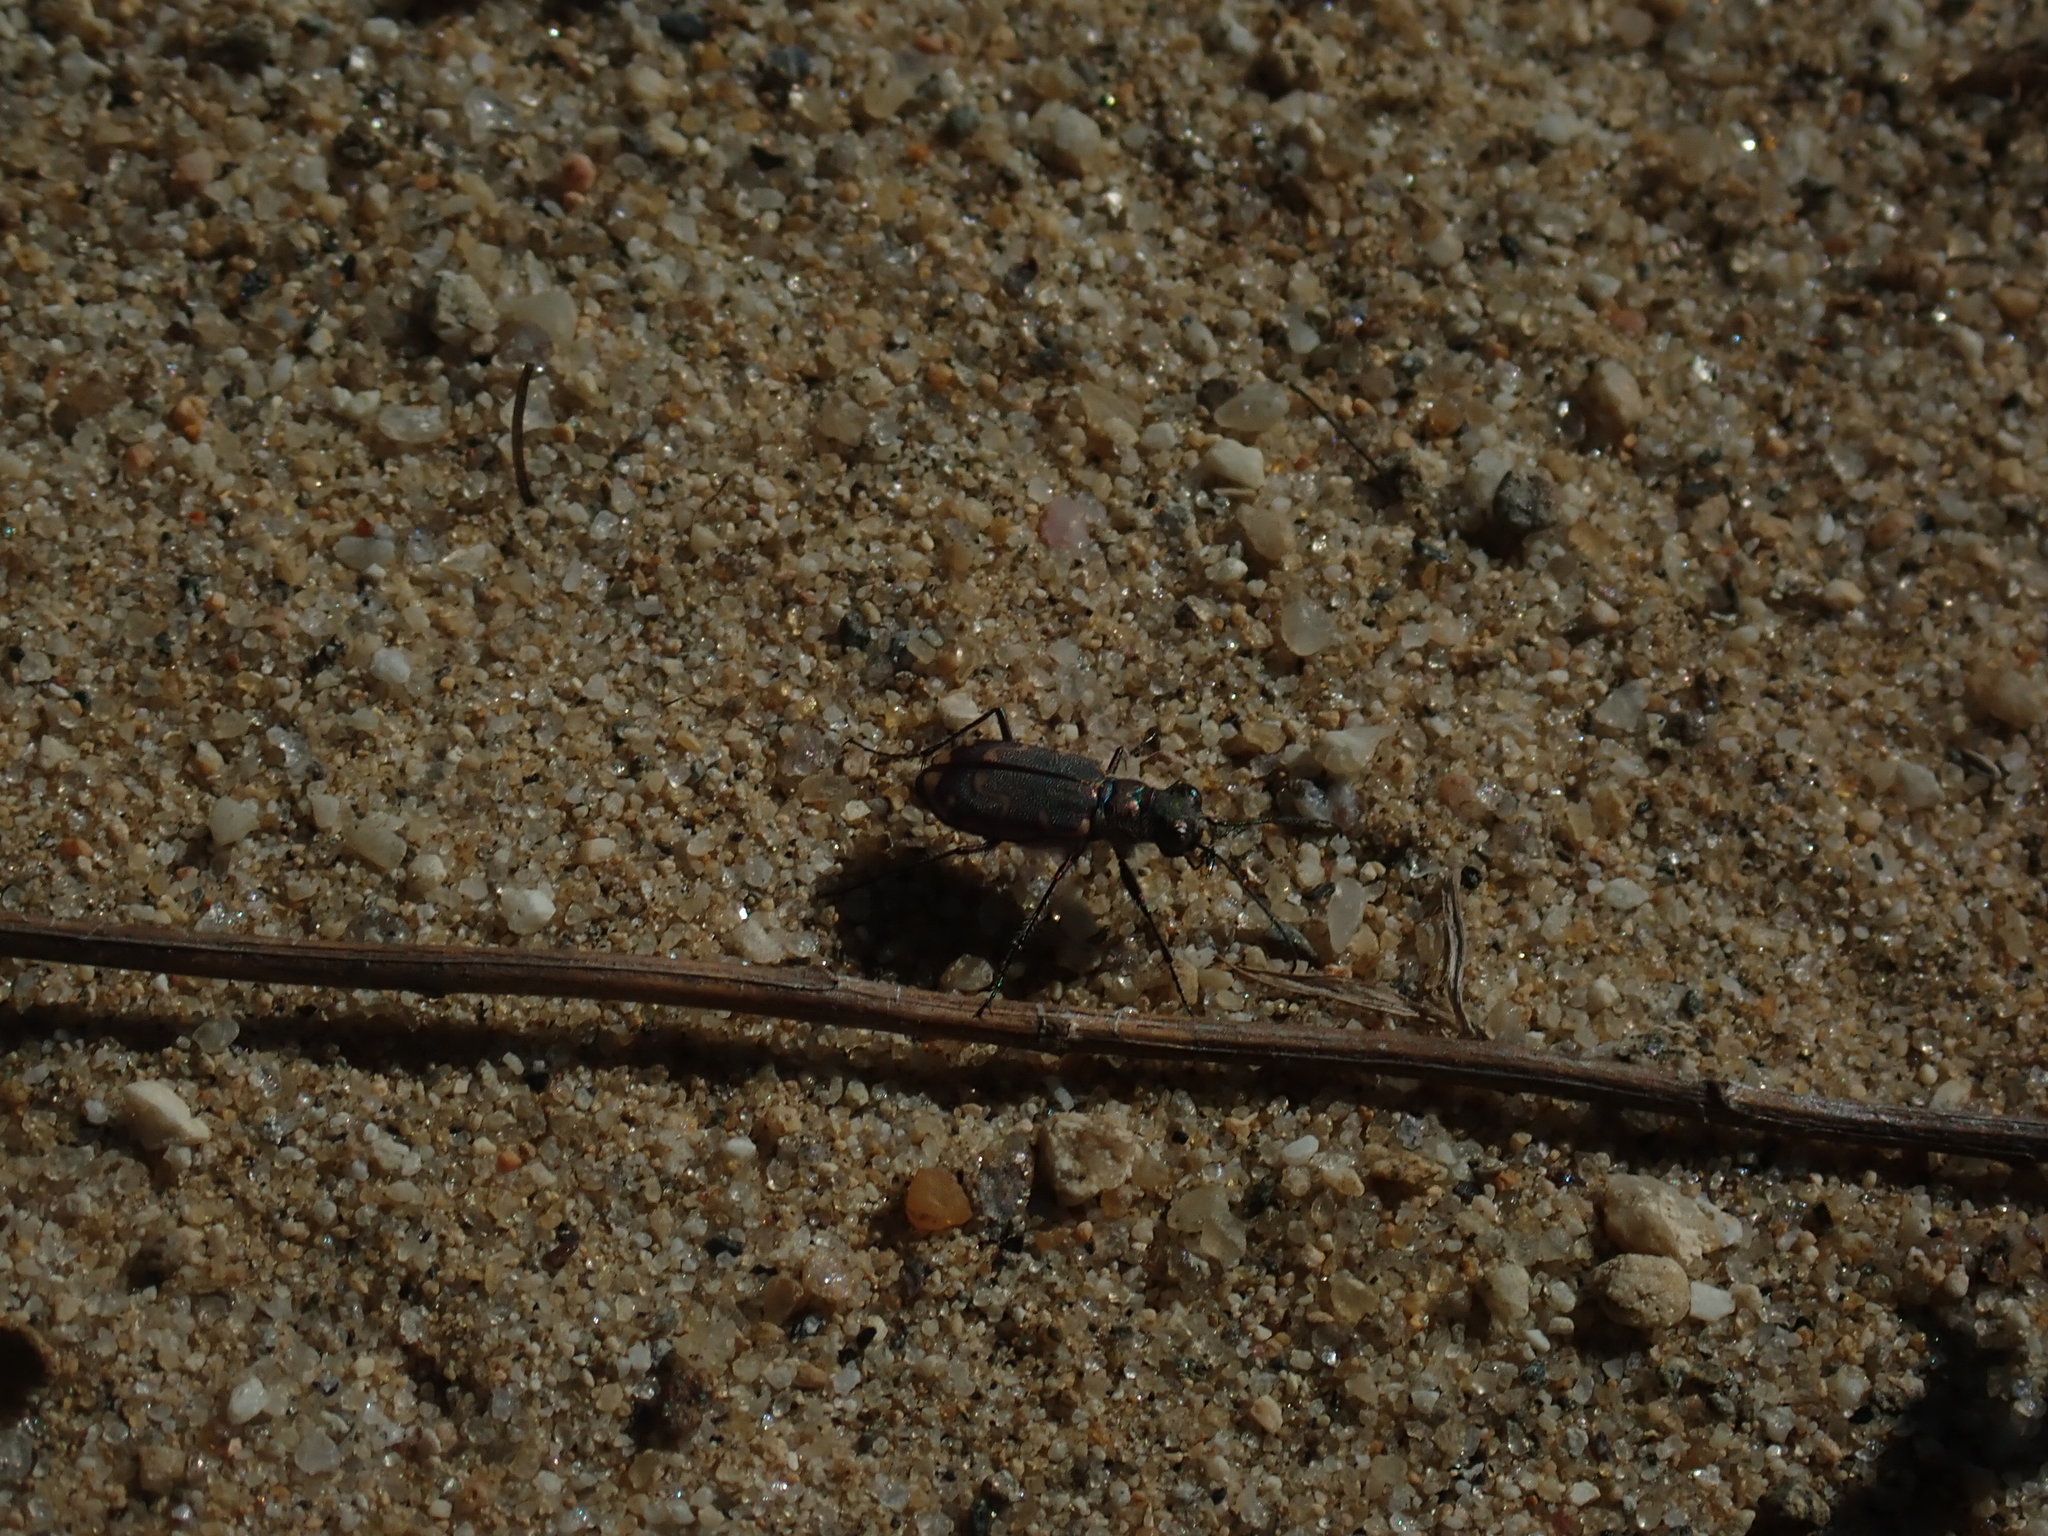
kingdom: Animalia
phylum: Arthropoda
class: Insecta
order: Coleoptera
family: Carabidae
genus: Cicindela
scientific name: Cicindela repanda
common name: Bronzed tiger beetle
